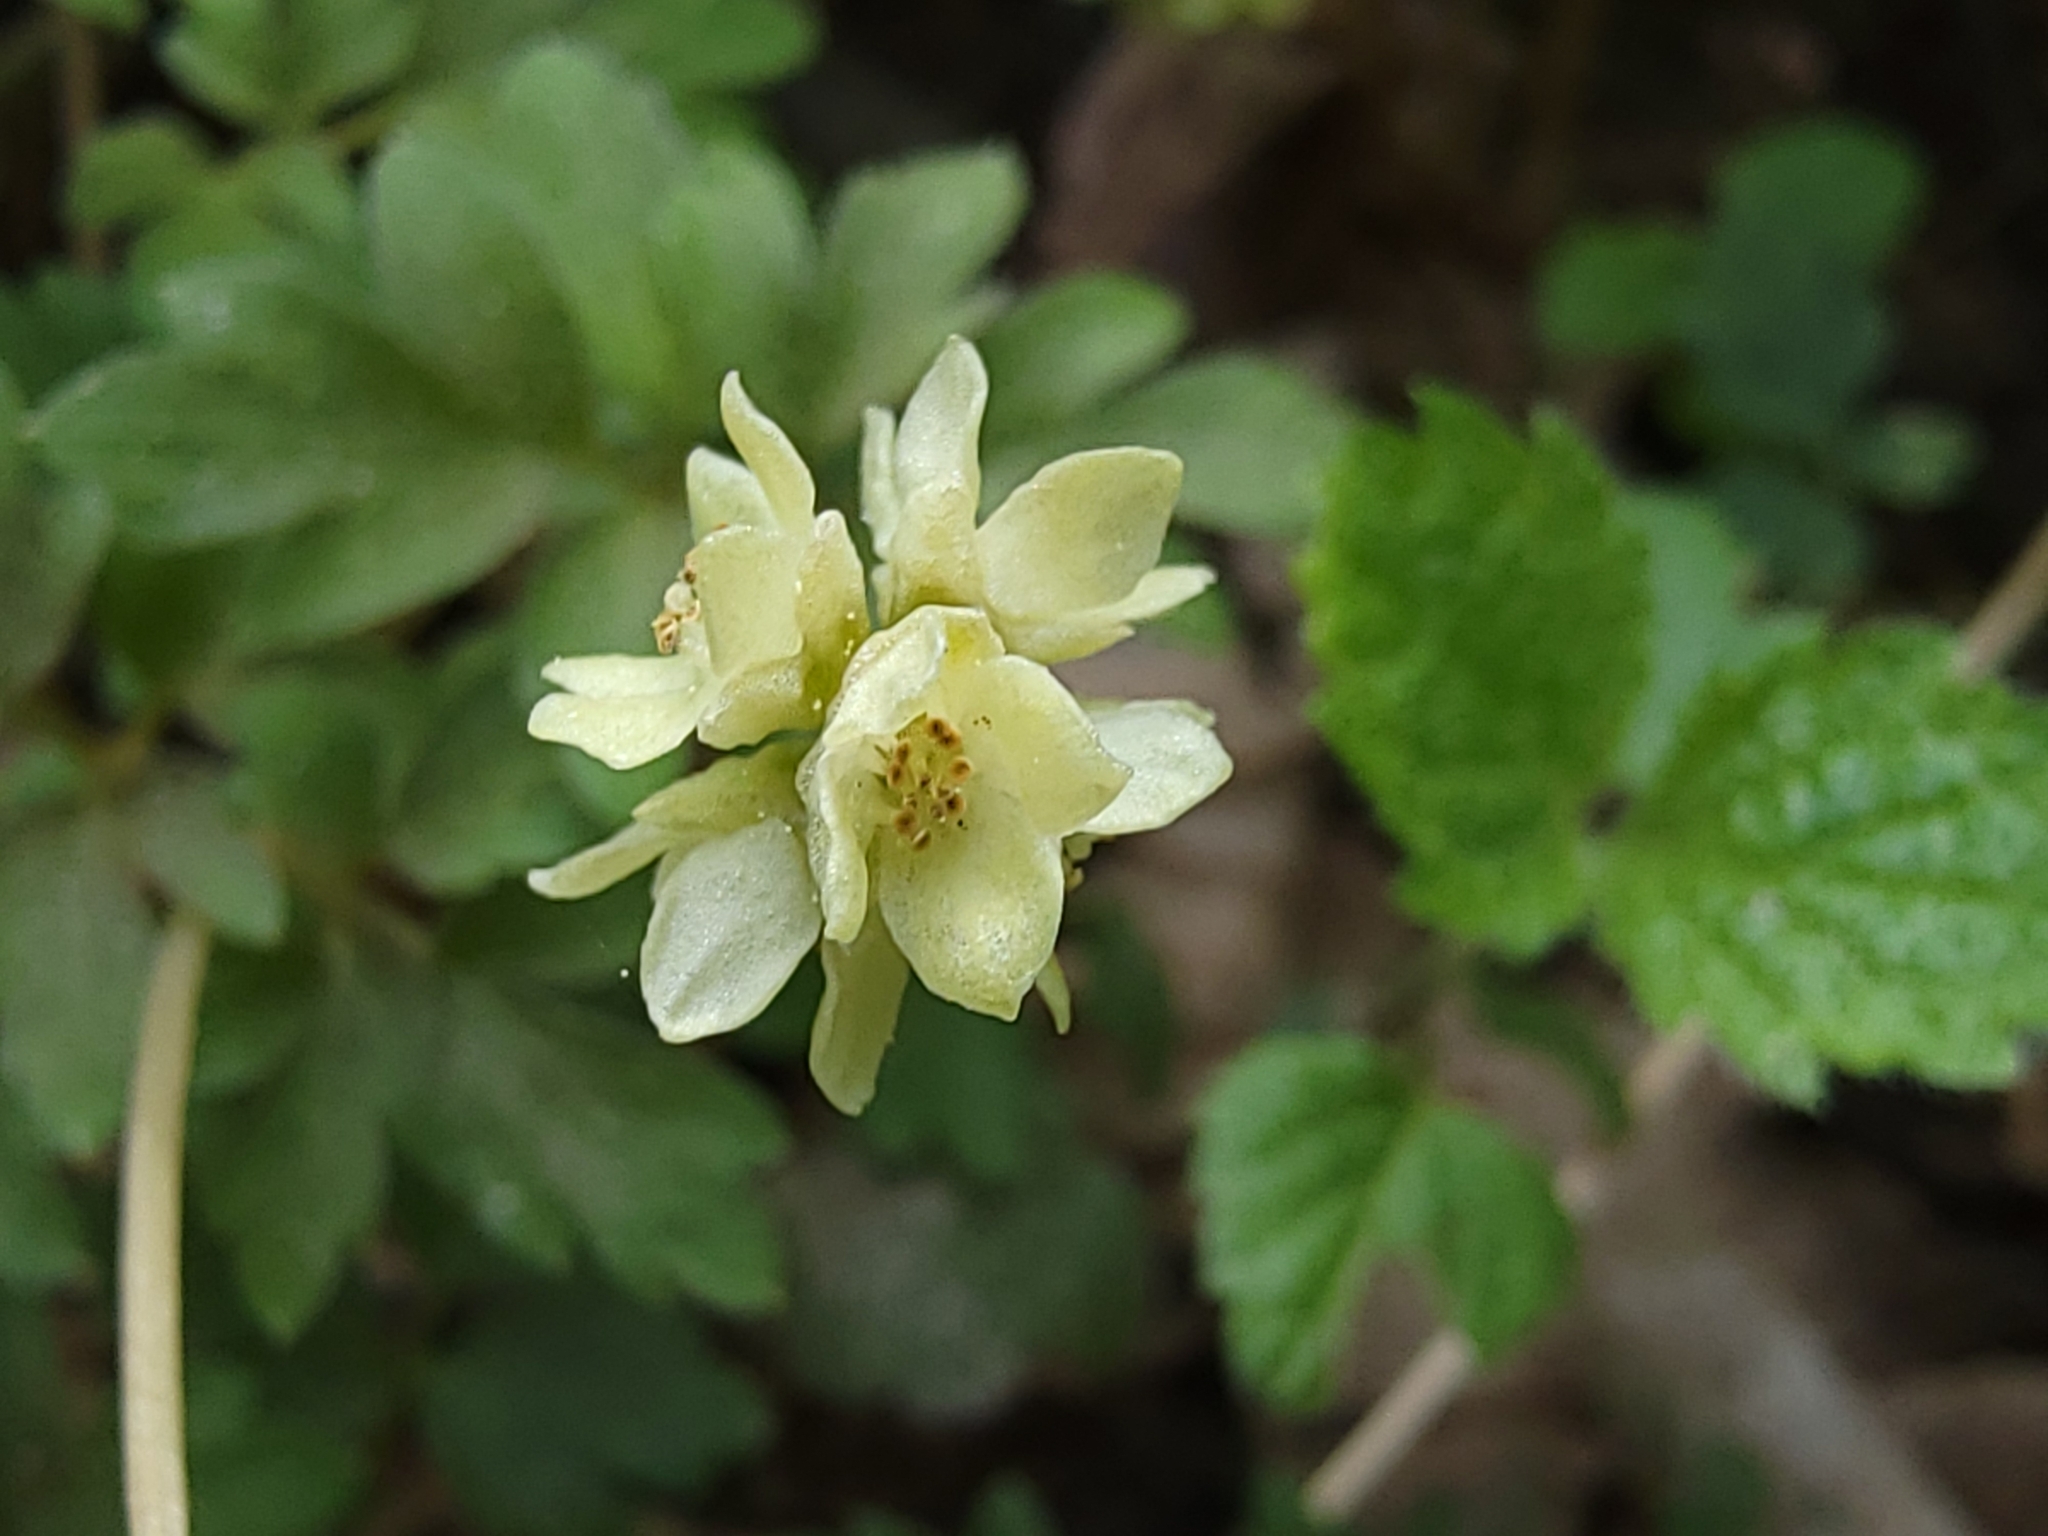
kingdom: Plantae
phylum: Tracheophyta
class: Magnoliopsida
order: Dipsacales
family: Viburnaceae
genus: Adoxa
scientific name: Adoxa moschatellina
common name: Moschatel
